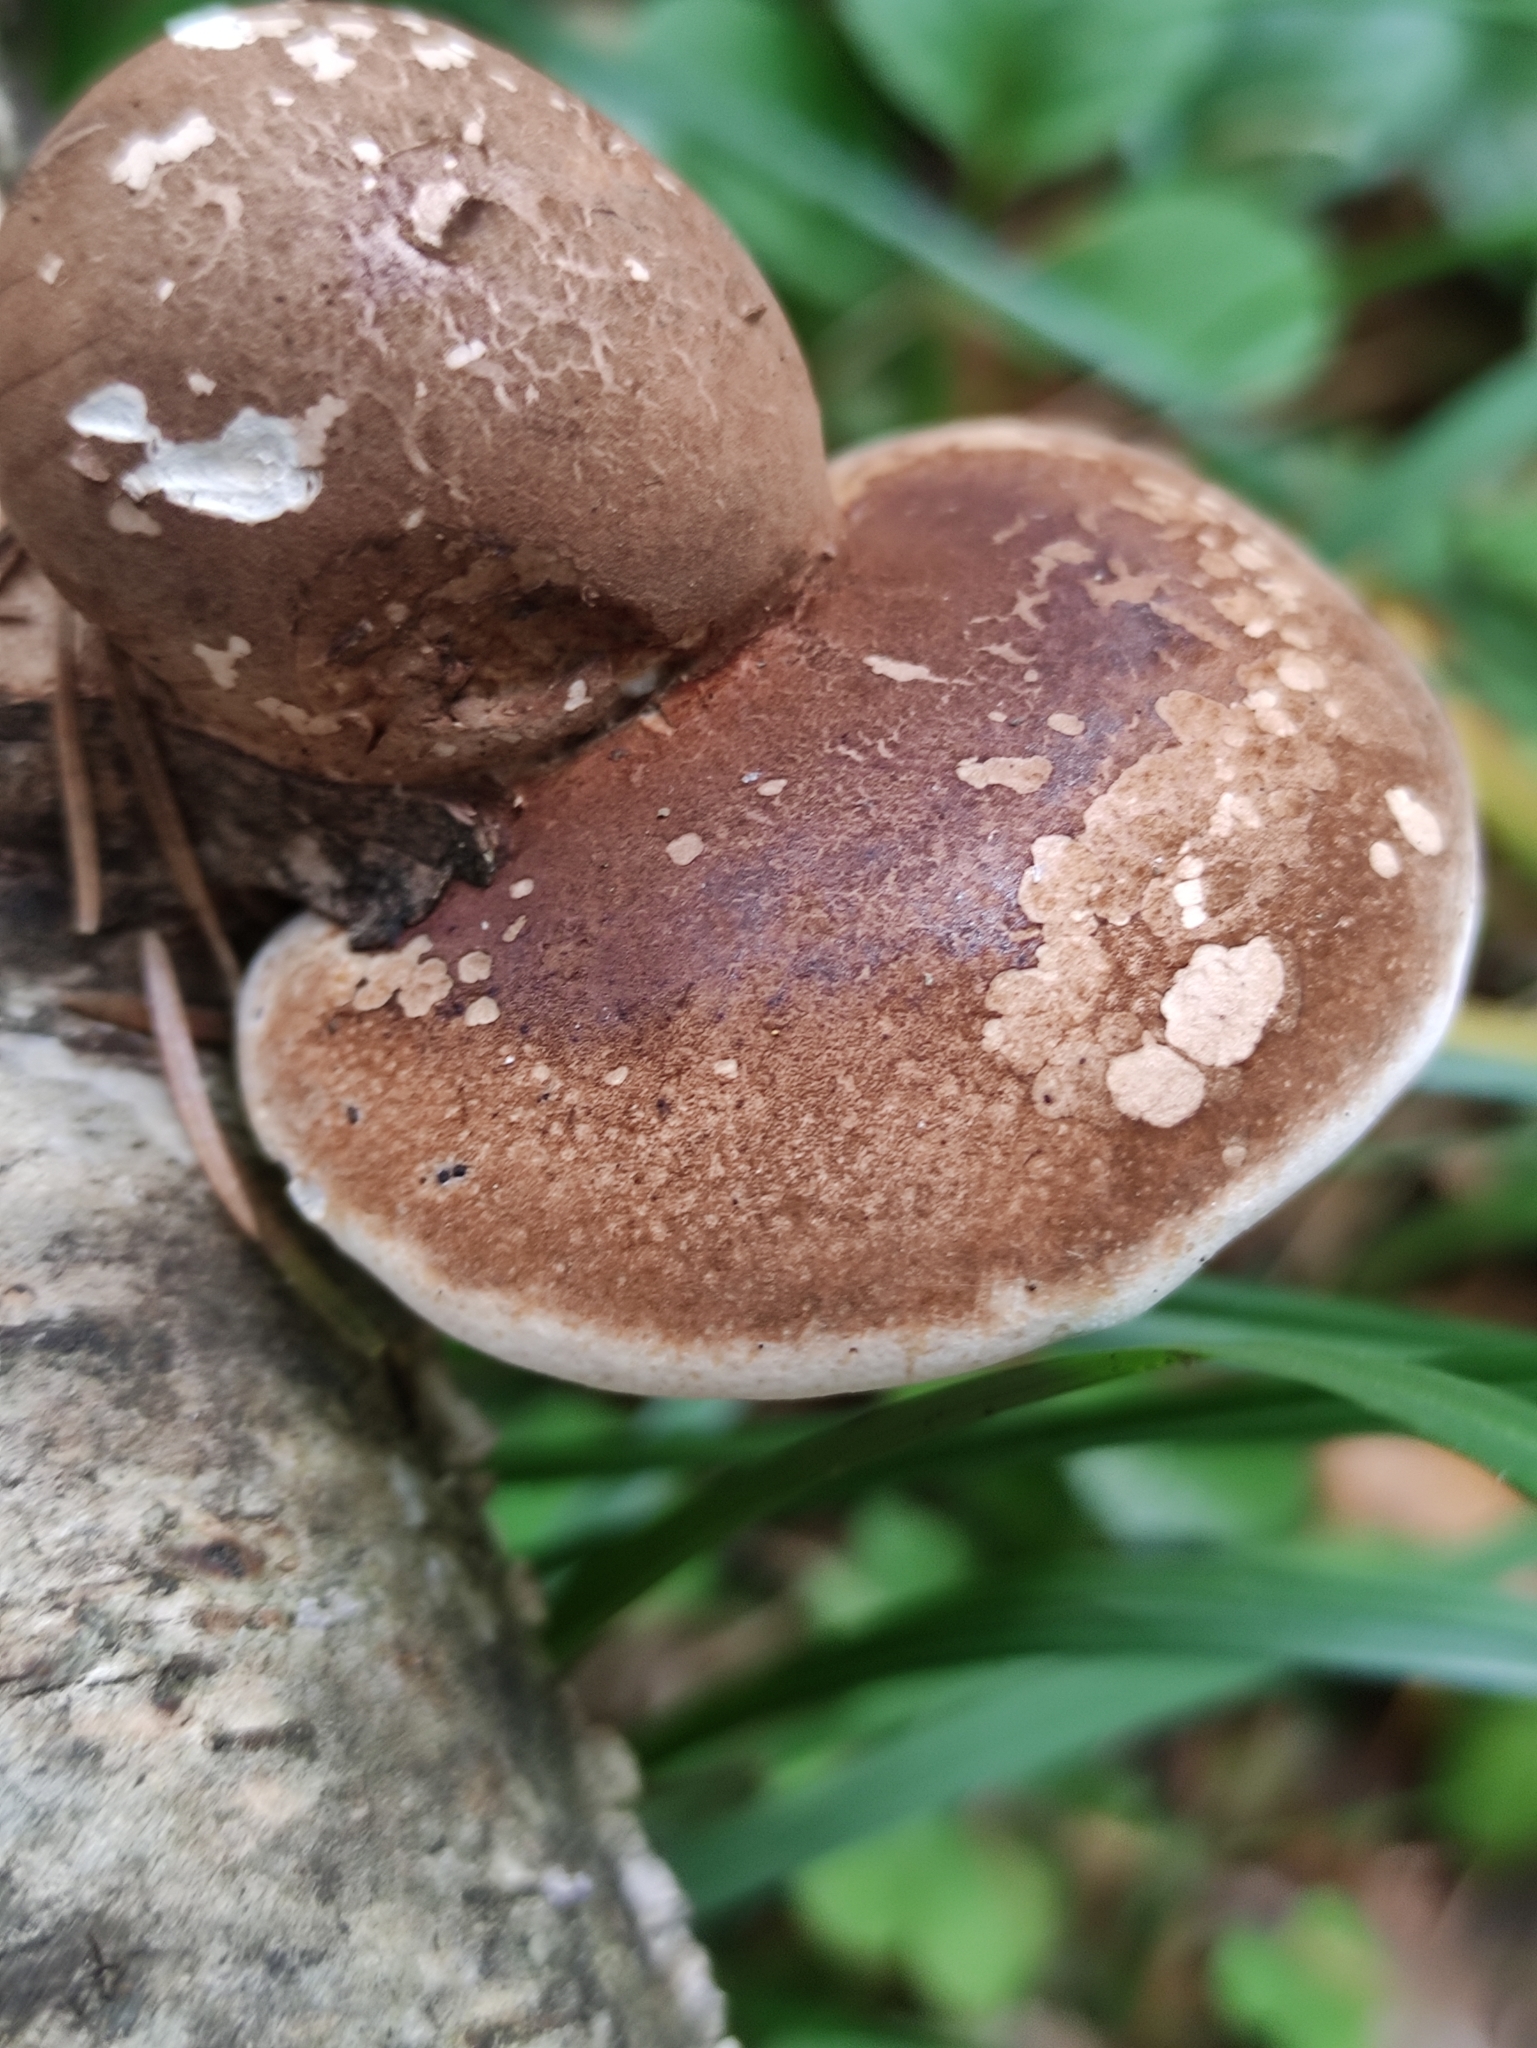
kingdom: Fungi
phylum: Basidiomycota
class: Agaricomycetes
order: Polyporales
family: Fomitopsidaceae
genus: Fomitopsis
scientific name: Fomitopsis betulina
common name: Birch polypore
